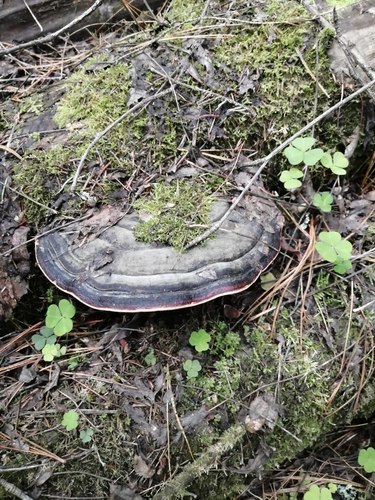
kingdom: Fungi
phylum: Basidiomycota
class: Agaricomycetes
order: Polyporales
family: Fomitopsidaceae
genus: Fomitopsis
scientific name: Fomitopsis pinicola
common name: Red-belted bracket
